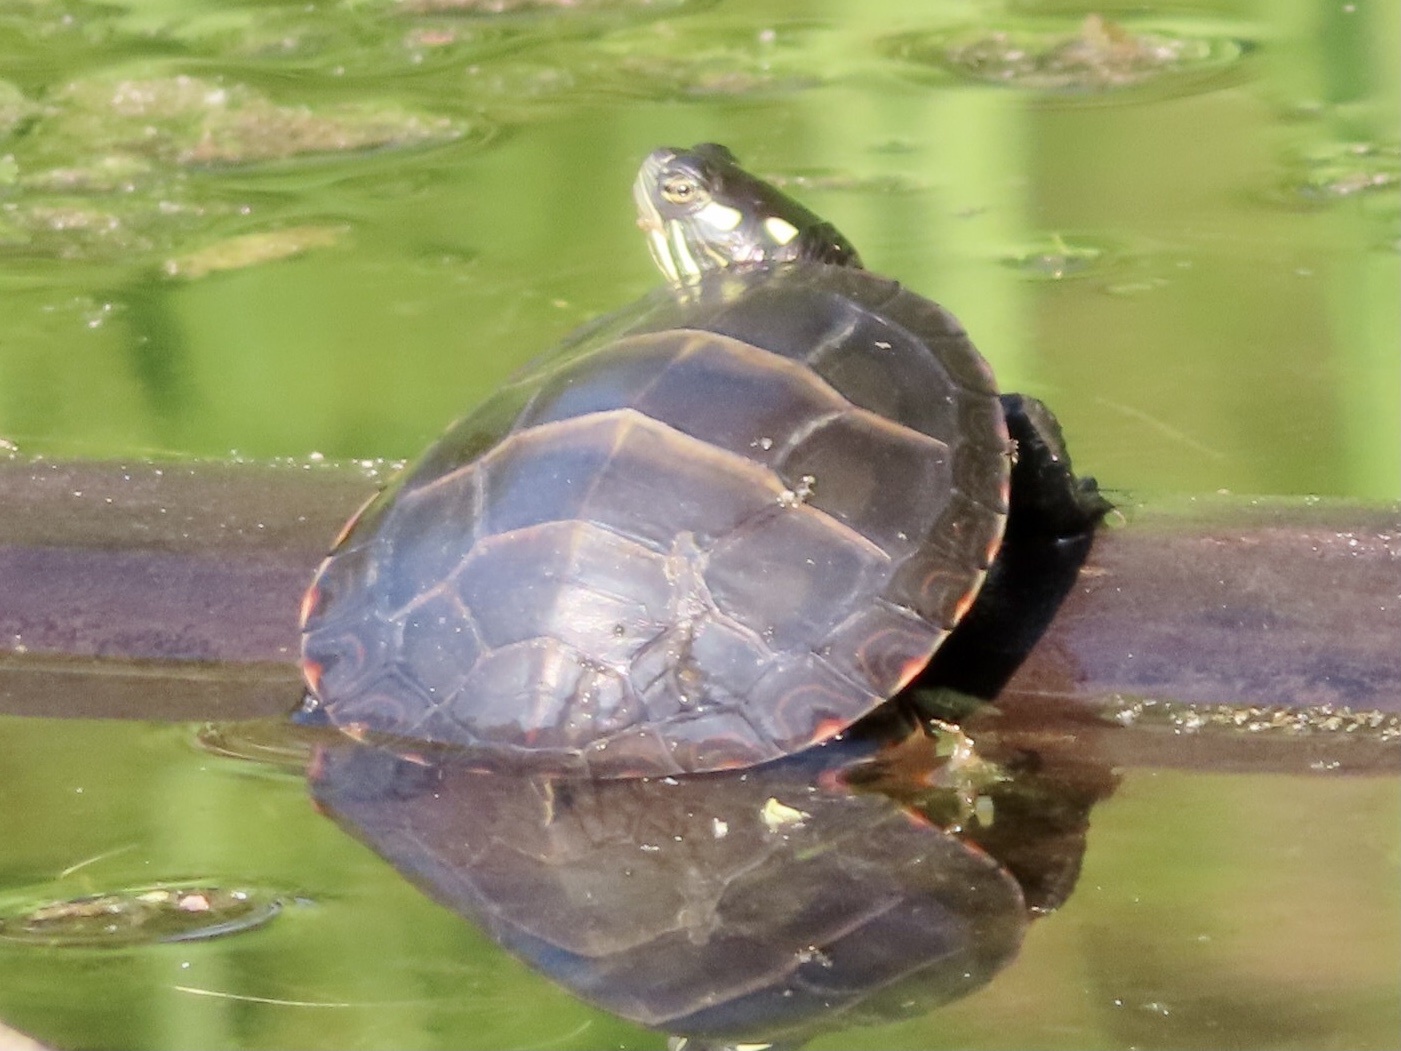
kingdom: Animalia
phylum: Chordata
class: Testudines
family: Emydidae
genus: Chrysemys
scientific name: Chrysemys picta
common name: Painted turtle
